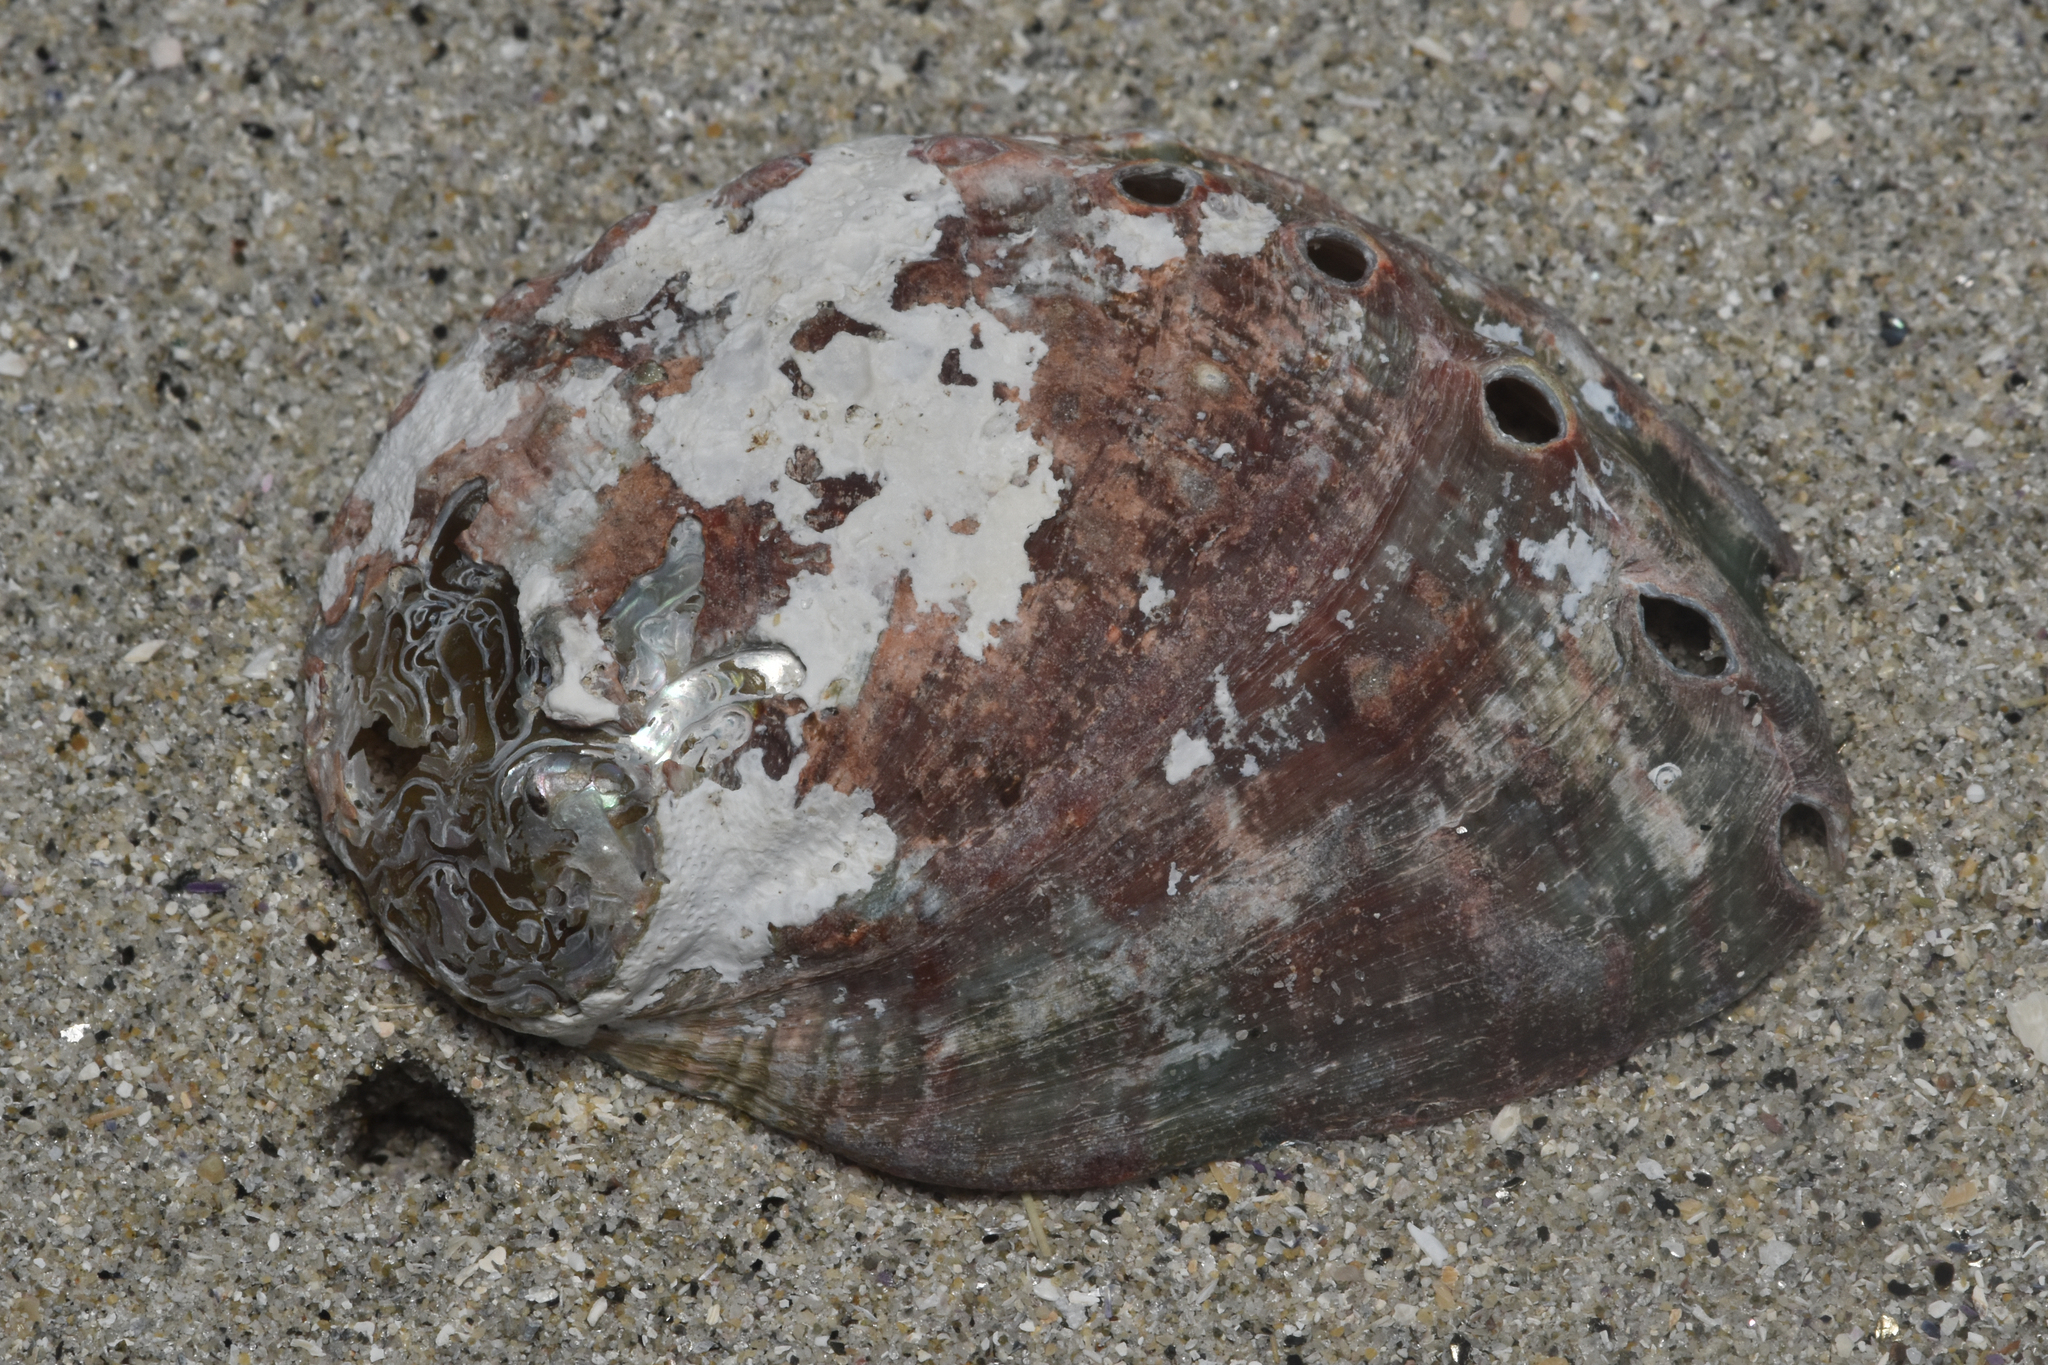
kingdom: Animalia
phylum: Mollusca
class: Gastropoda
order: Lepetellida
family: Haliotidae
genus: Haliotis
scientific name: Haliotis kamtschatkana
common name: Pinto abalone
